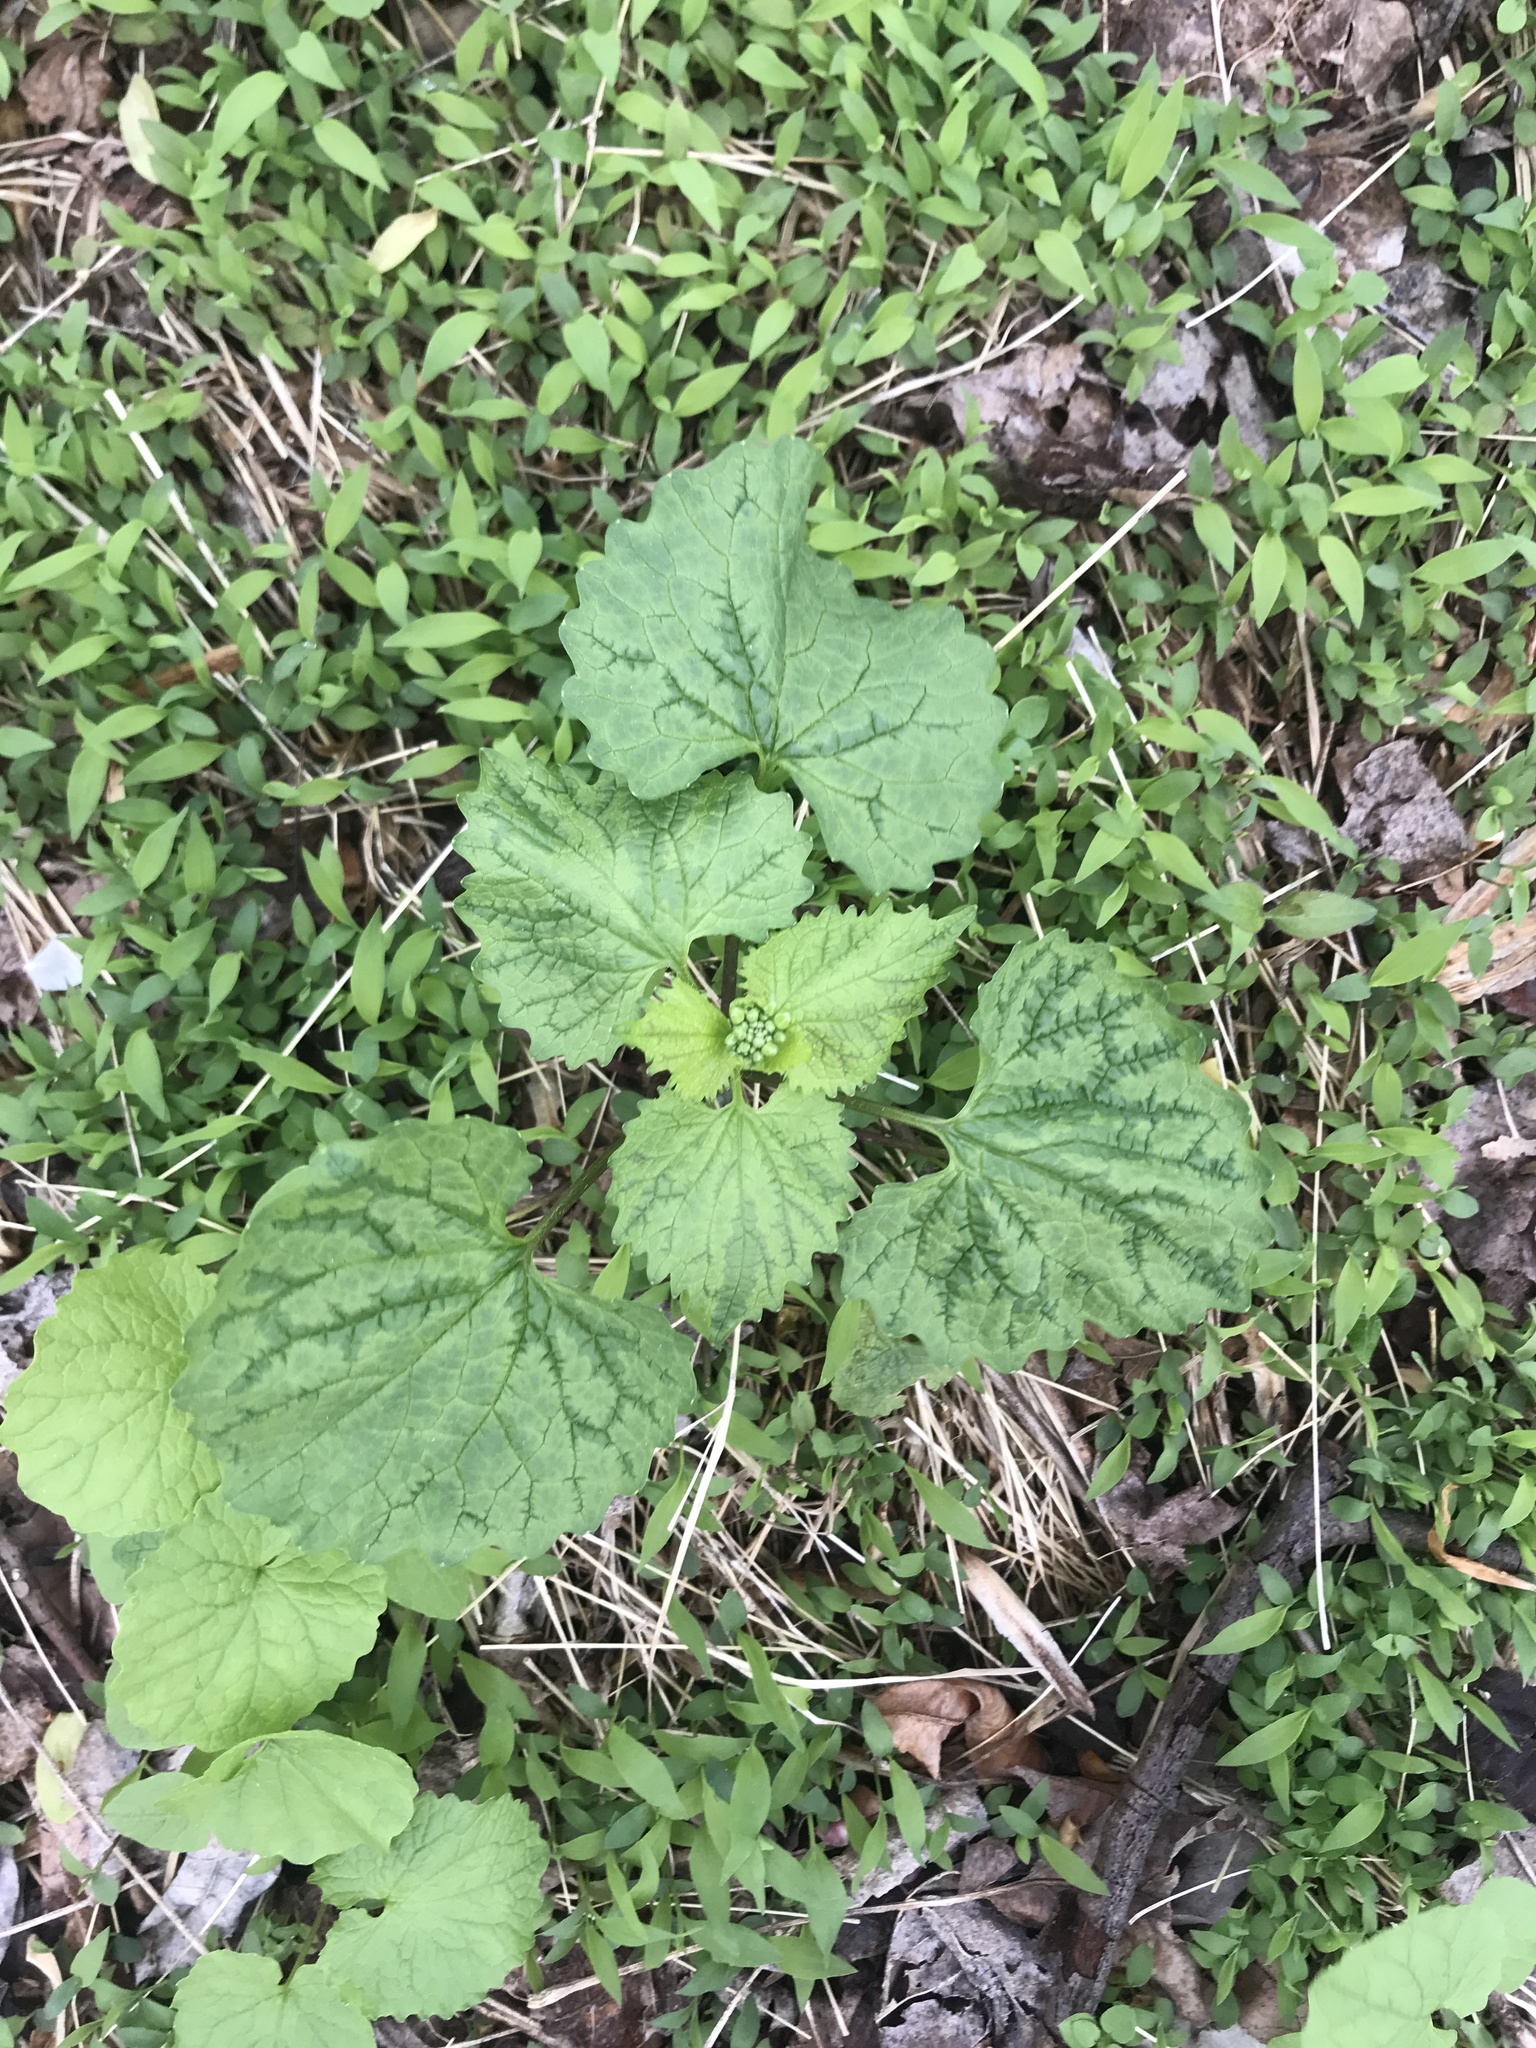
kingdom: Plantae
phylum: Tracheophyta
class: Magnoliopsida
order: Brassicales
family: Brassicaceae
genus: Alliaria
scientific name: Alliaria petiolata
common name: Garlic mustard
